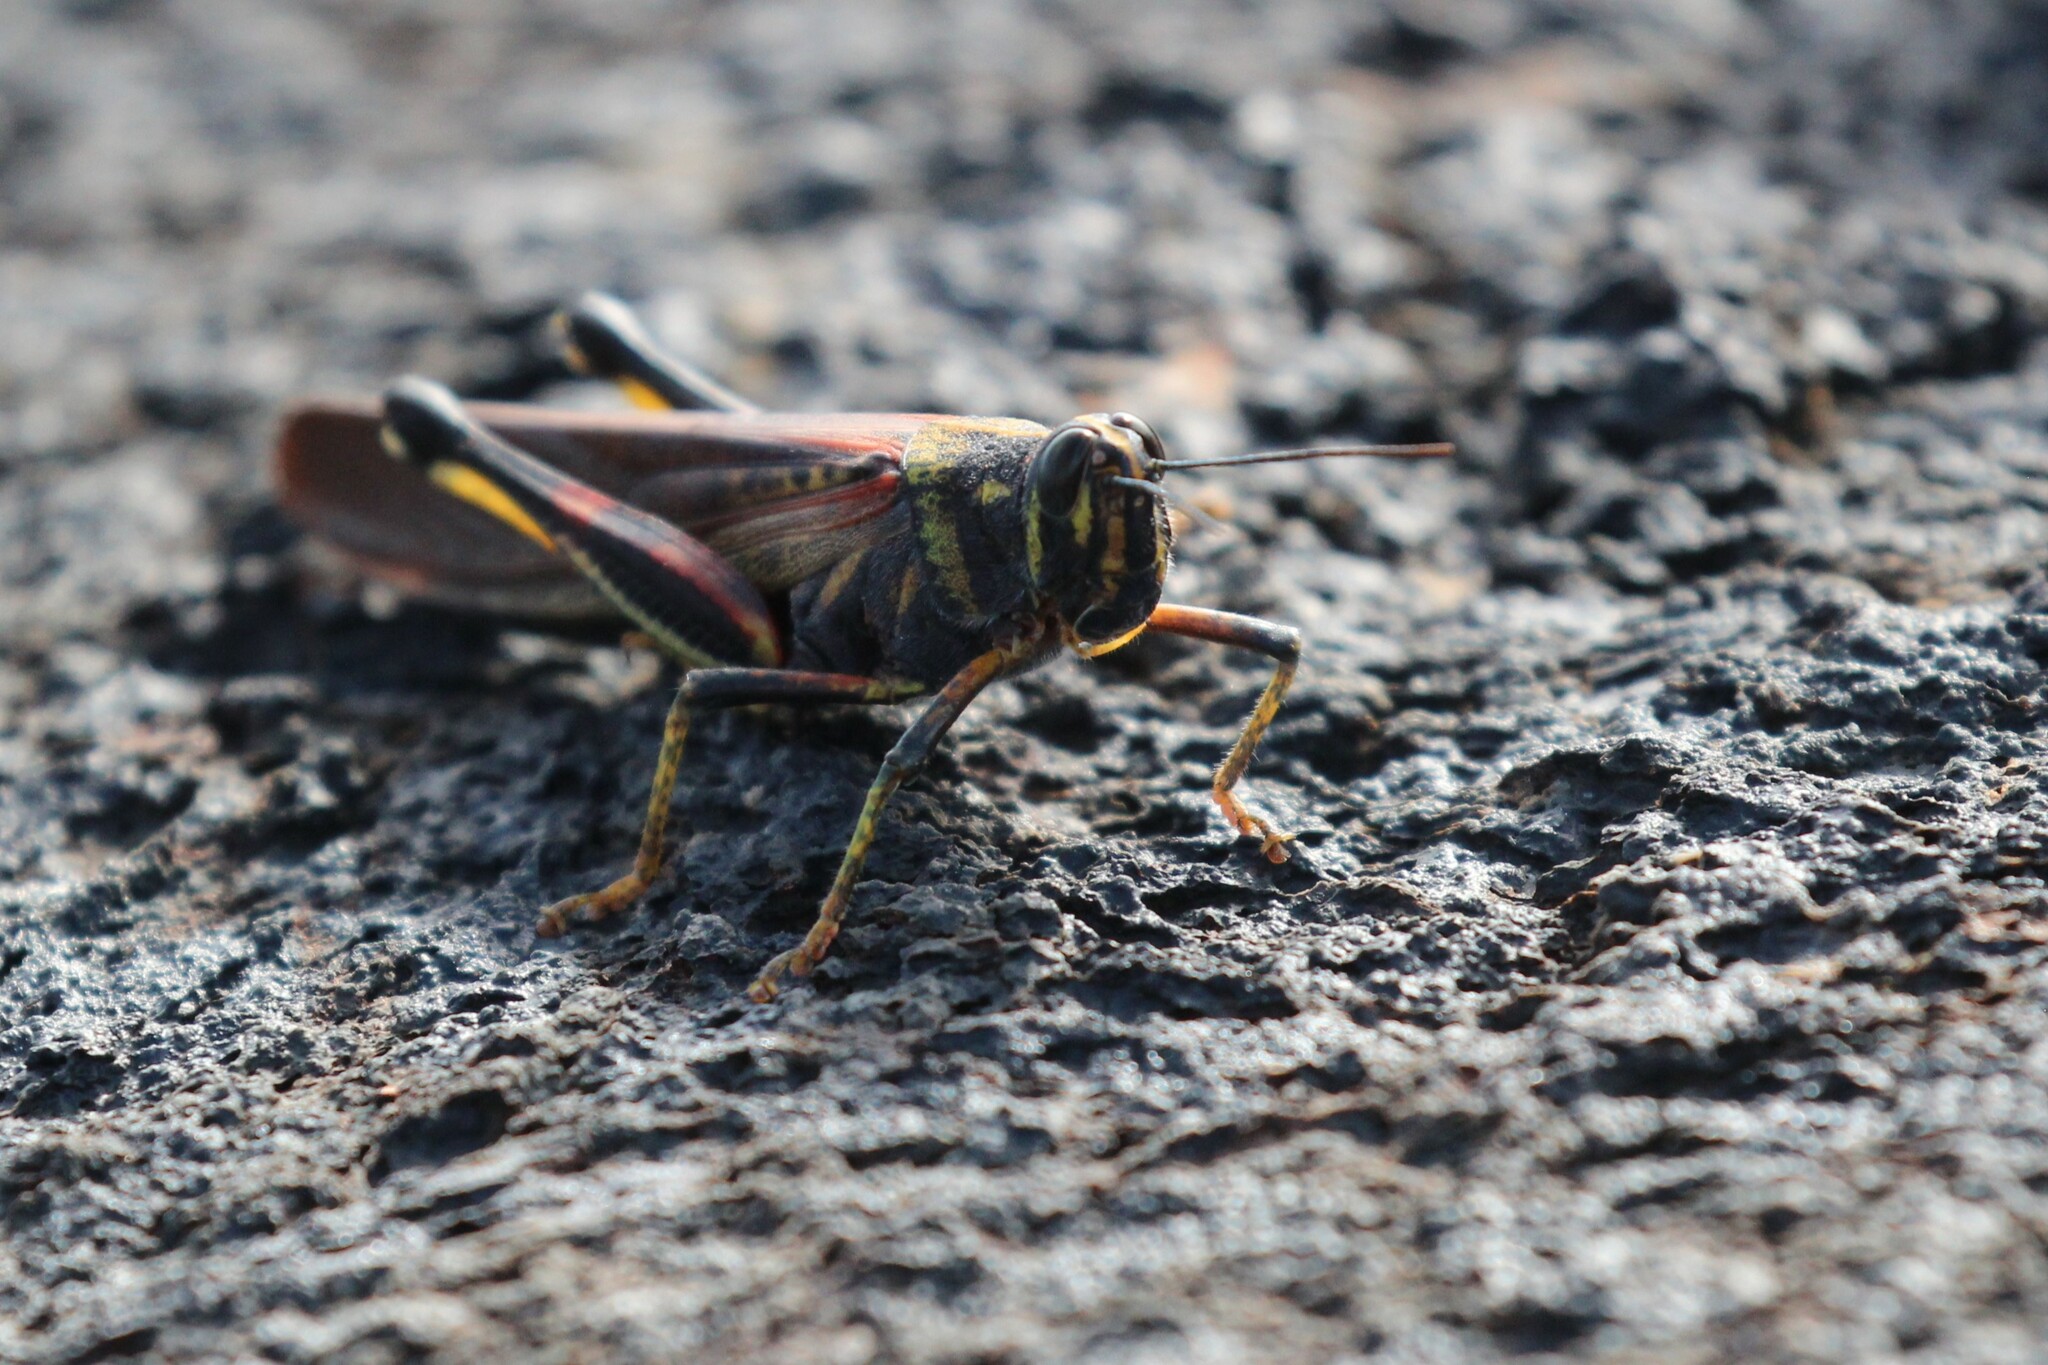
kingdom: Animalia
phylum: Arthropoda
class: Insecta
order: Orthoptera
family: Acrididae
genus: Schistocerca
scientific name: Schistocerca melanocera
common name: Large painted locust
